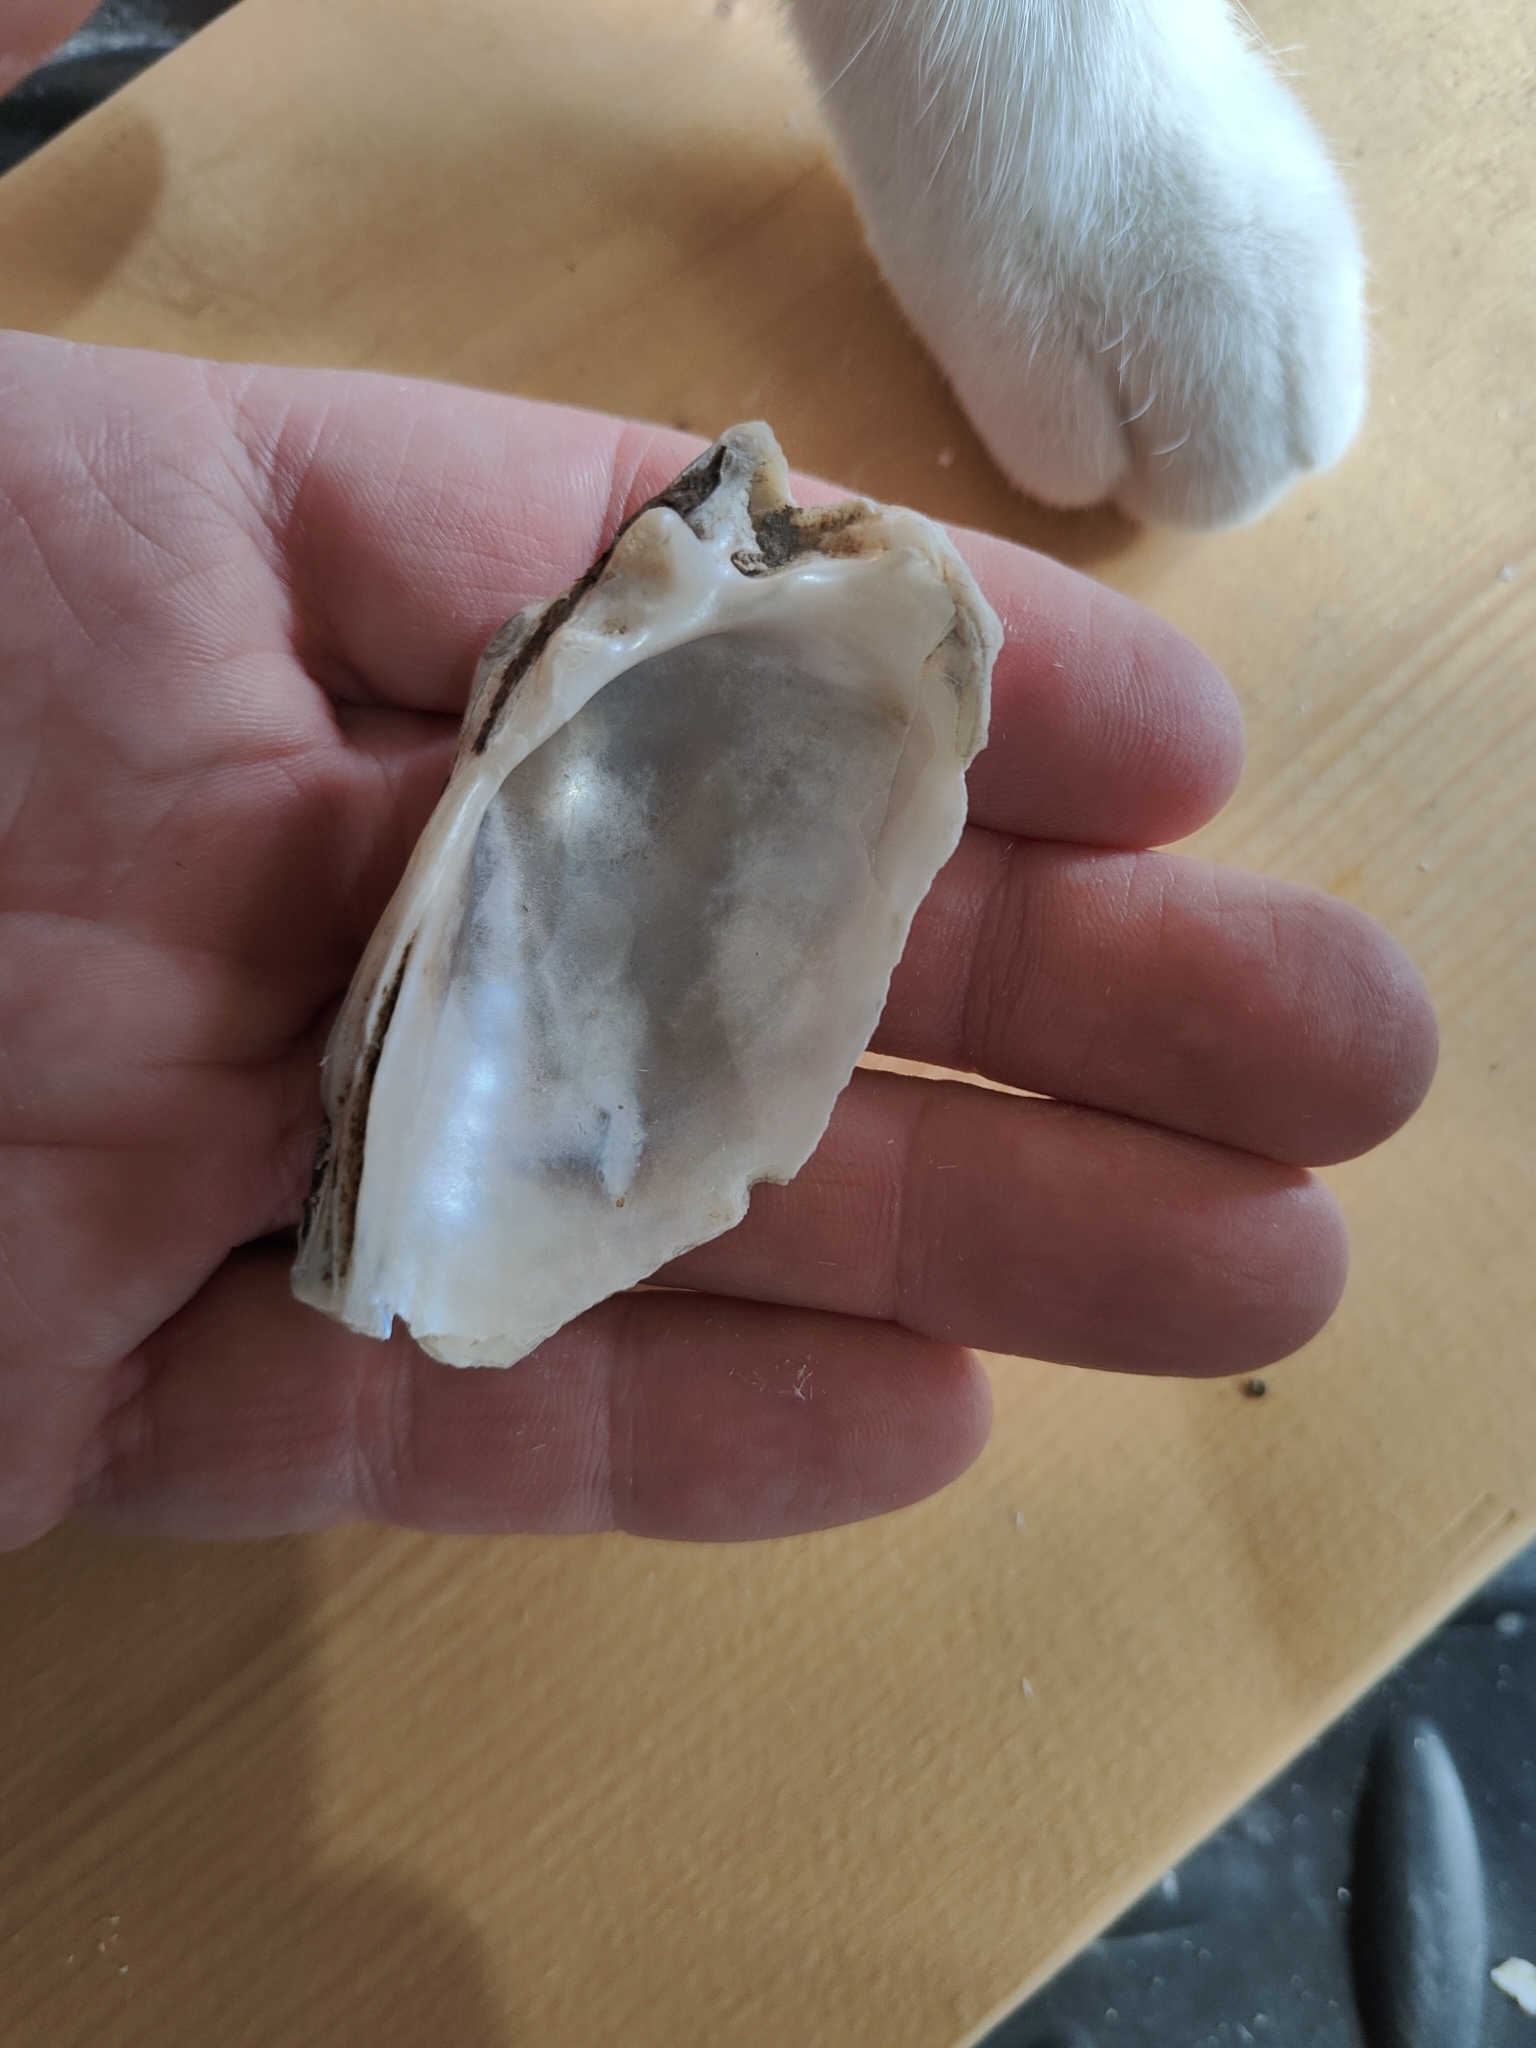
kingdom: Animalia
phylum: Mollusca
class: Bivalvia
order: Unionida
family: Unionidae
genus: Lampsilis
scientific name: Lampsilis siliquoidea
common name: Fatmucket
